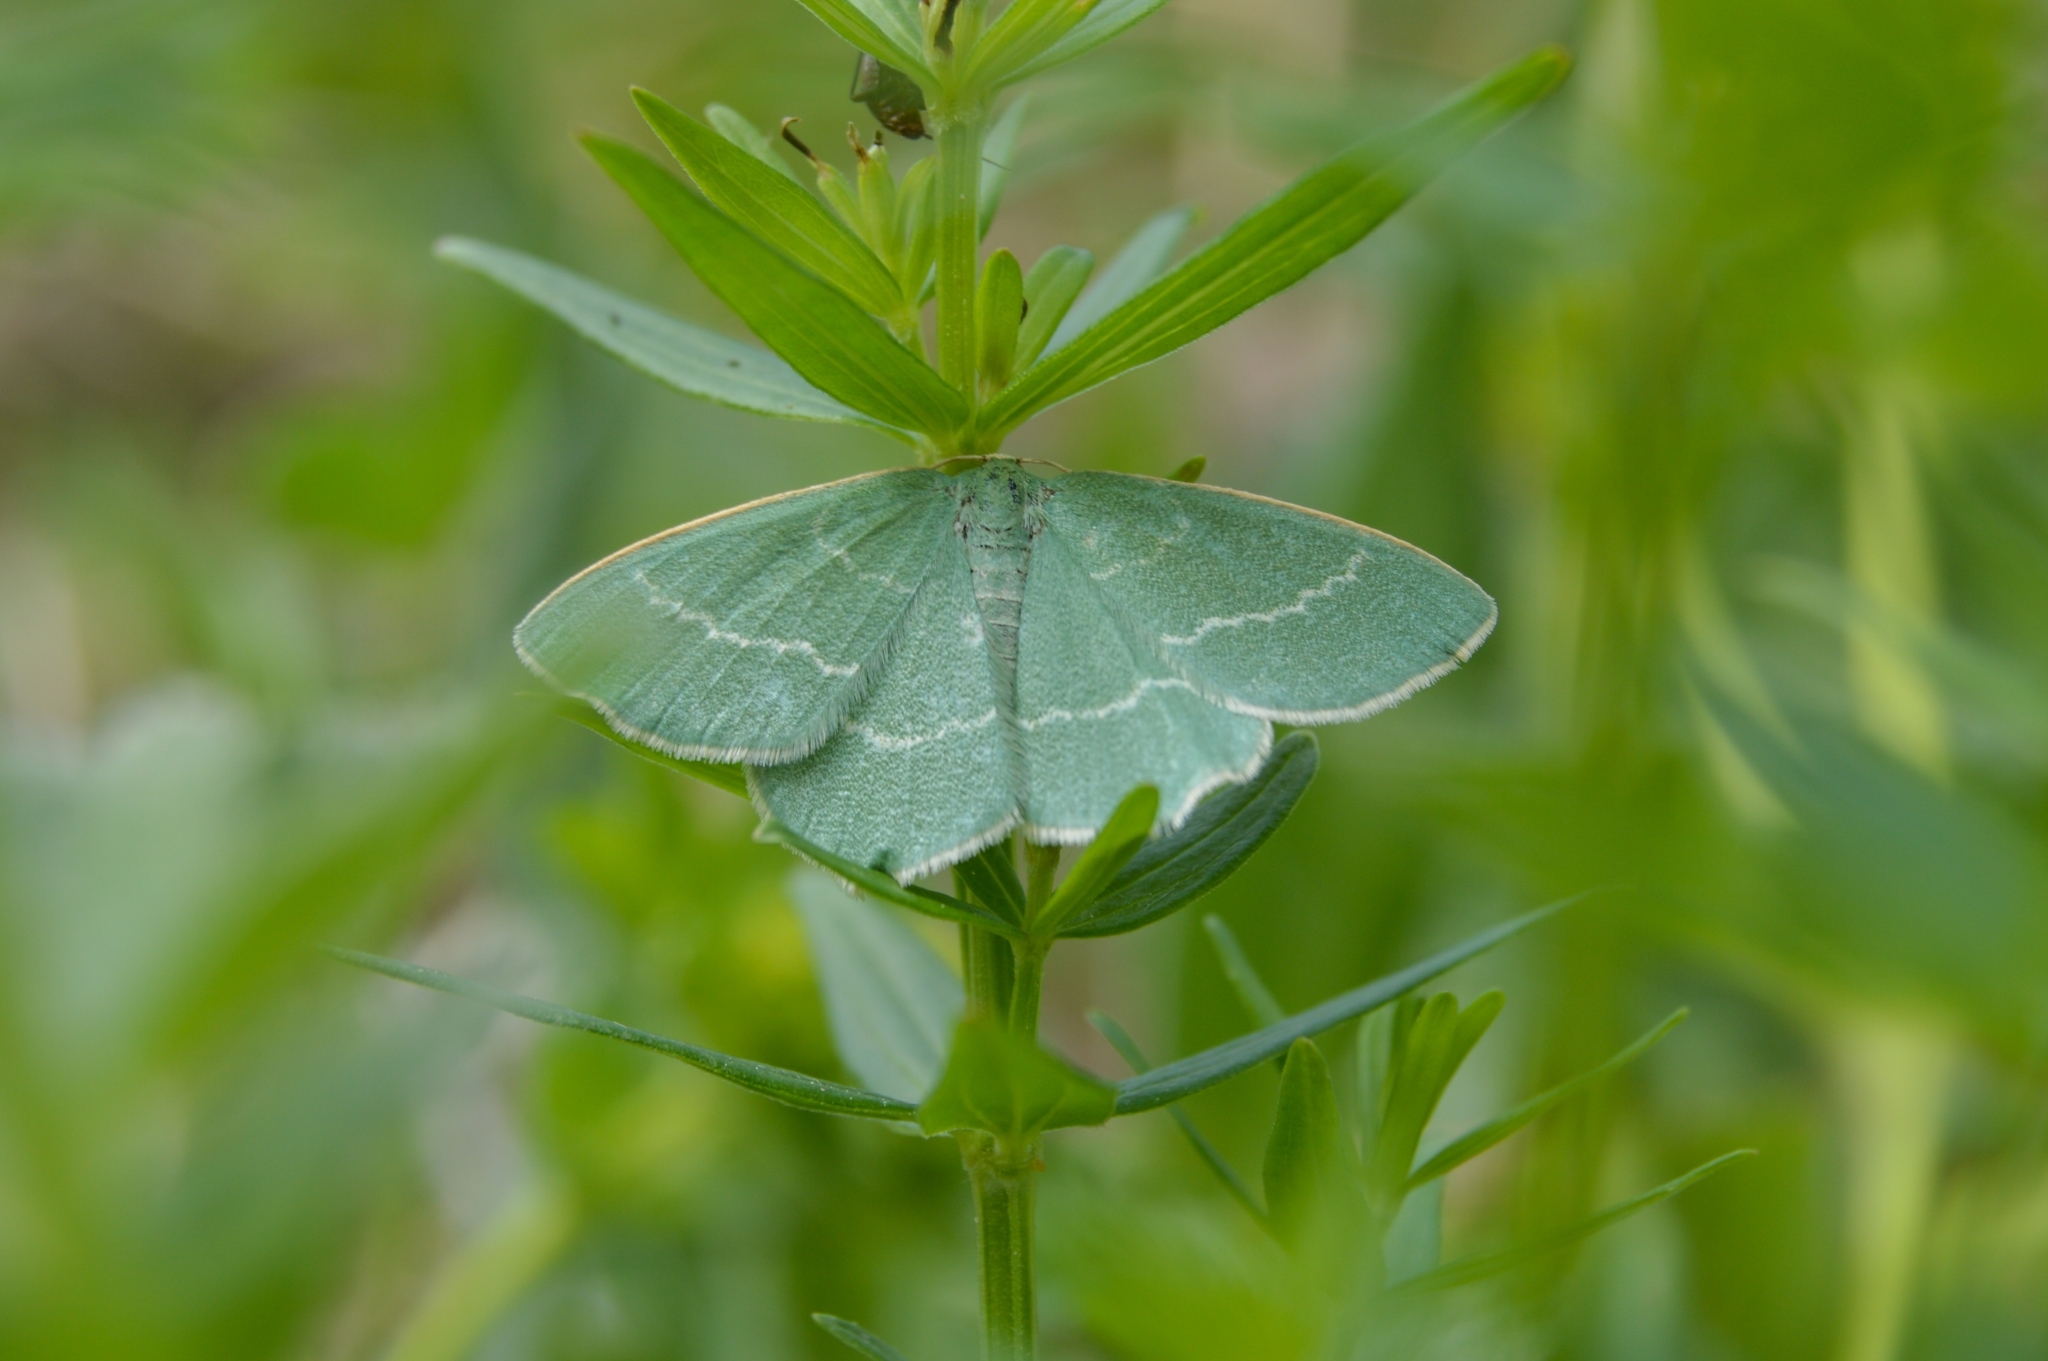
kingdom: Animalia
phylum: Arthropoda
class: Insecta
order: Lepidoptera
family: Geometridae
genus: Chlorissa
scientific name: Chlorissa viridata
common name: Small grass emerald
